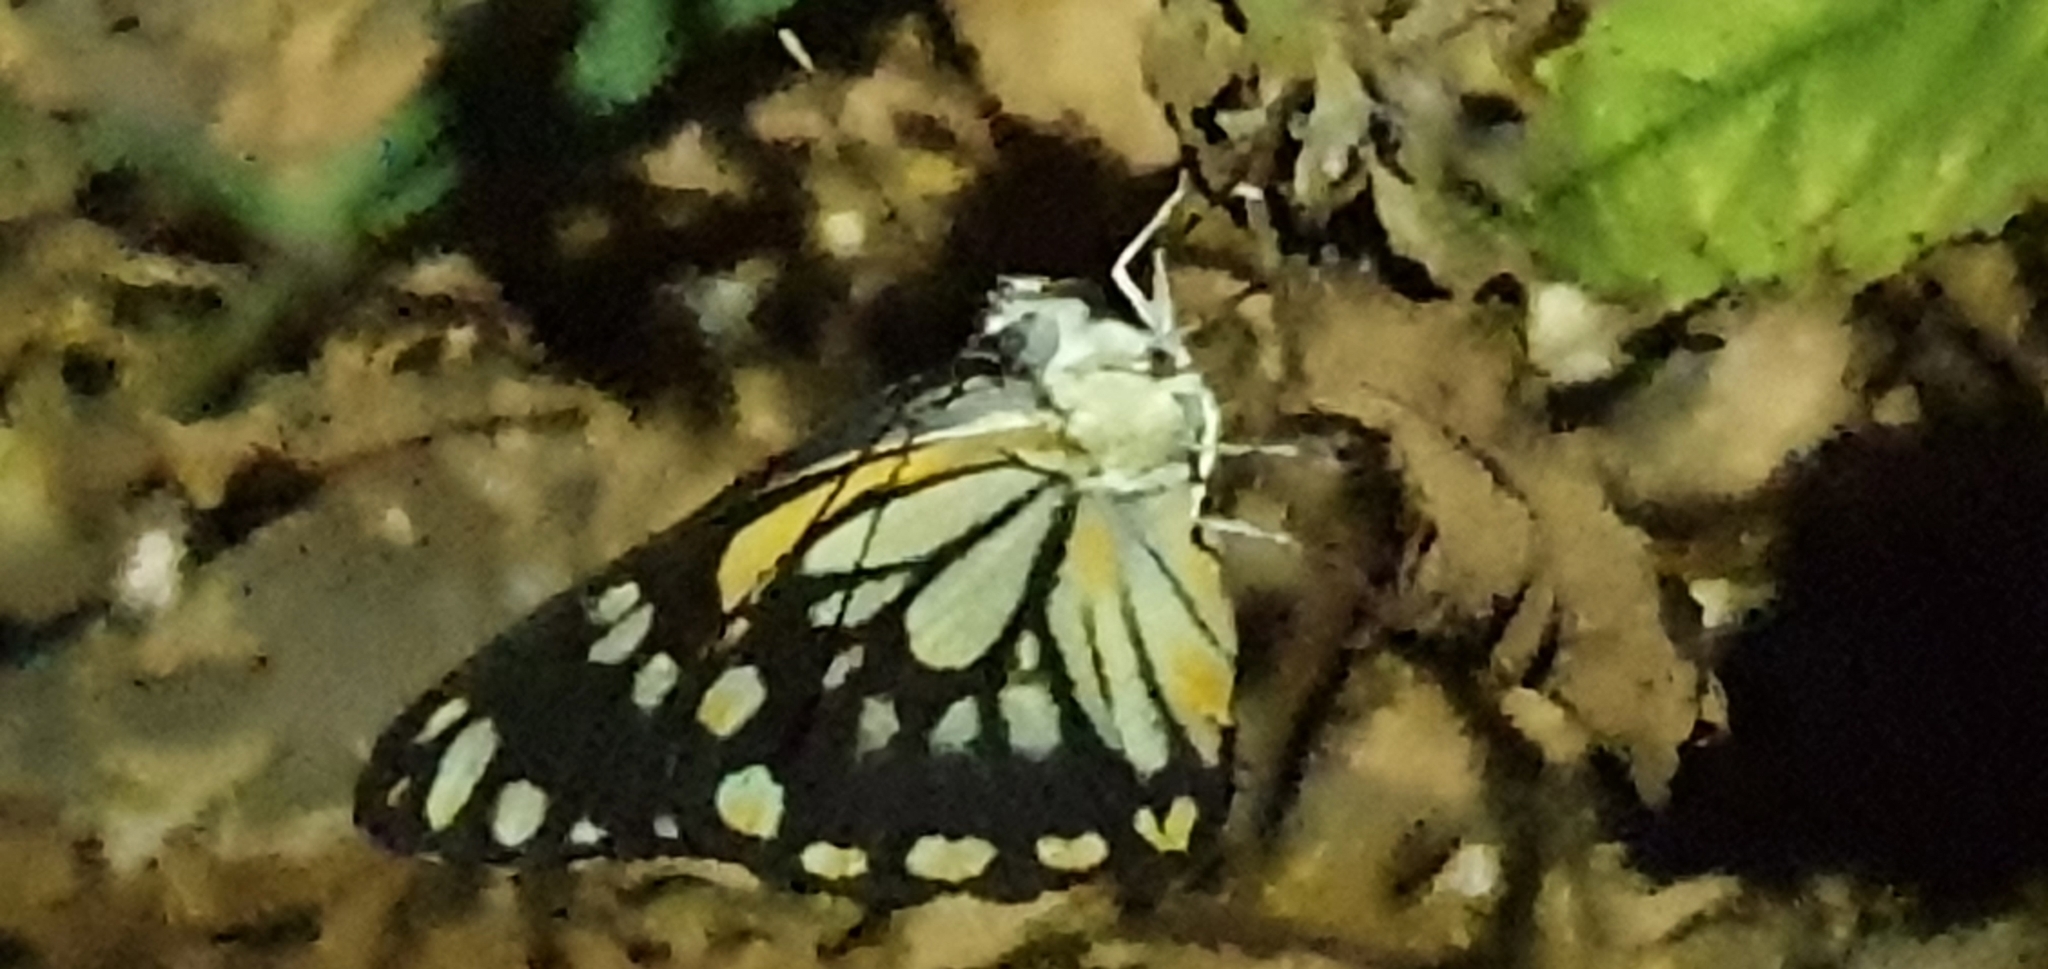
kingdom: Animalia
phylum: Arthropoda
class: Insecta
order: Lepidoptera
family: Pieridae
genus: Belenois
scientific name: Belenois java
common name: Caper white
